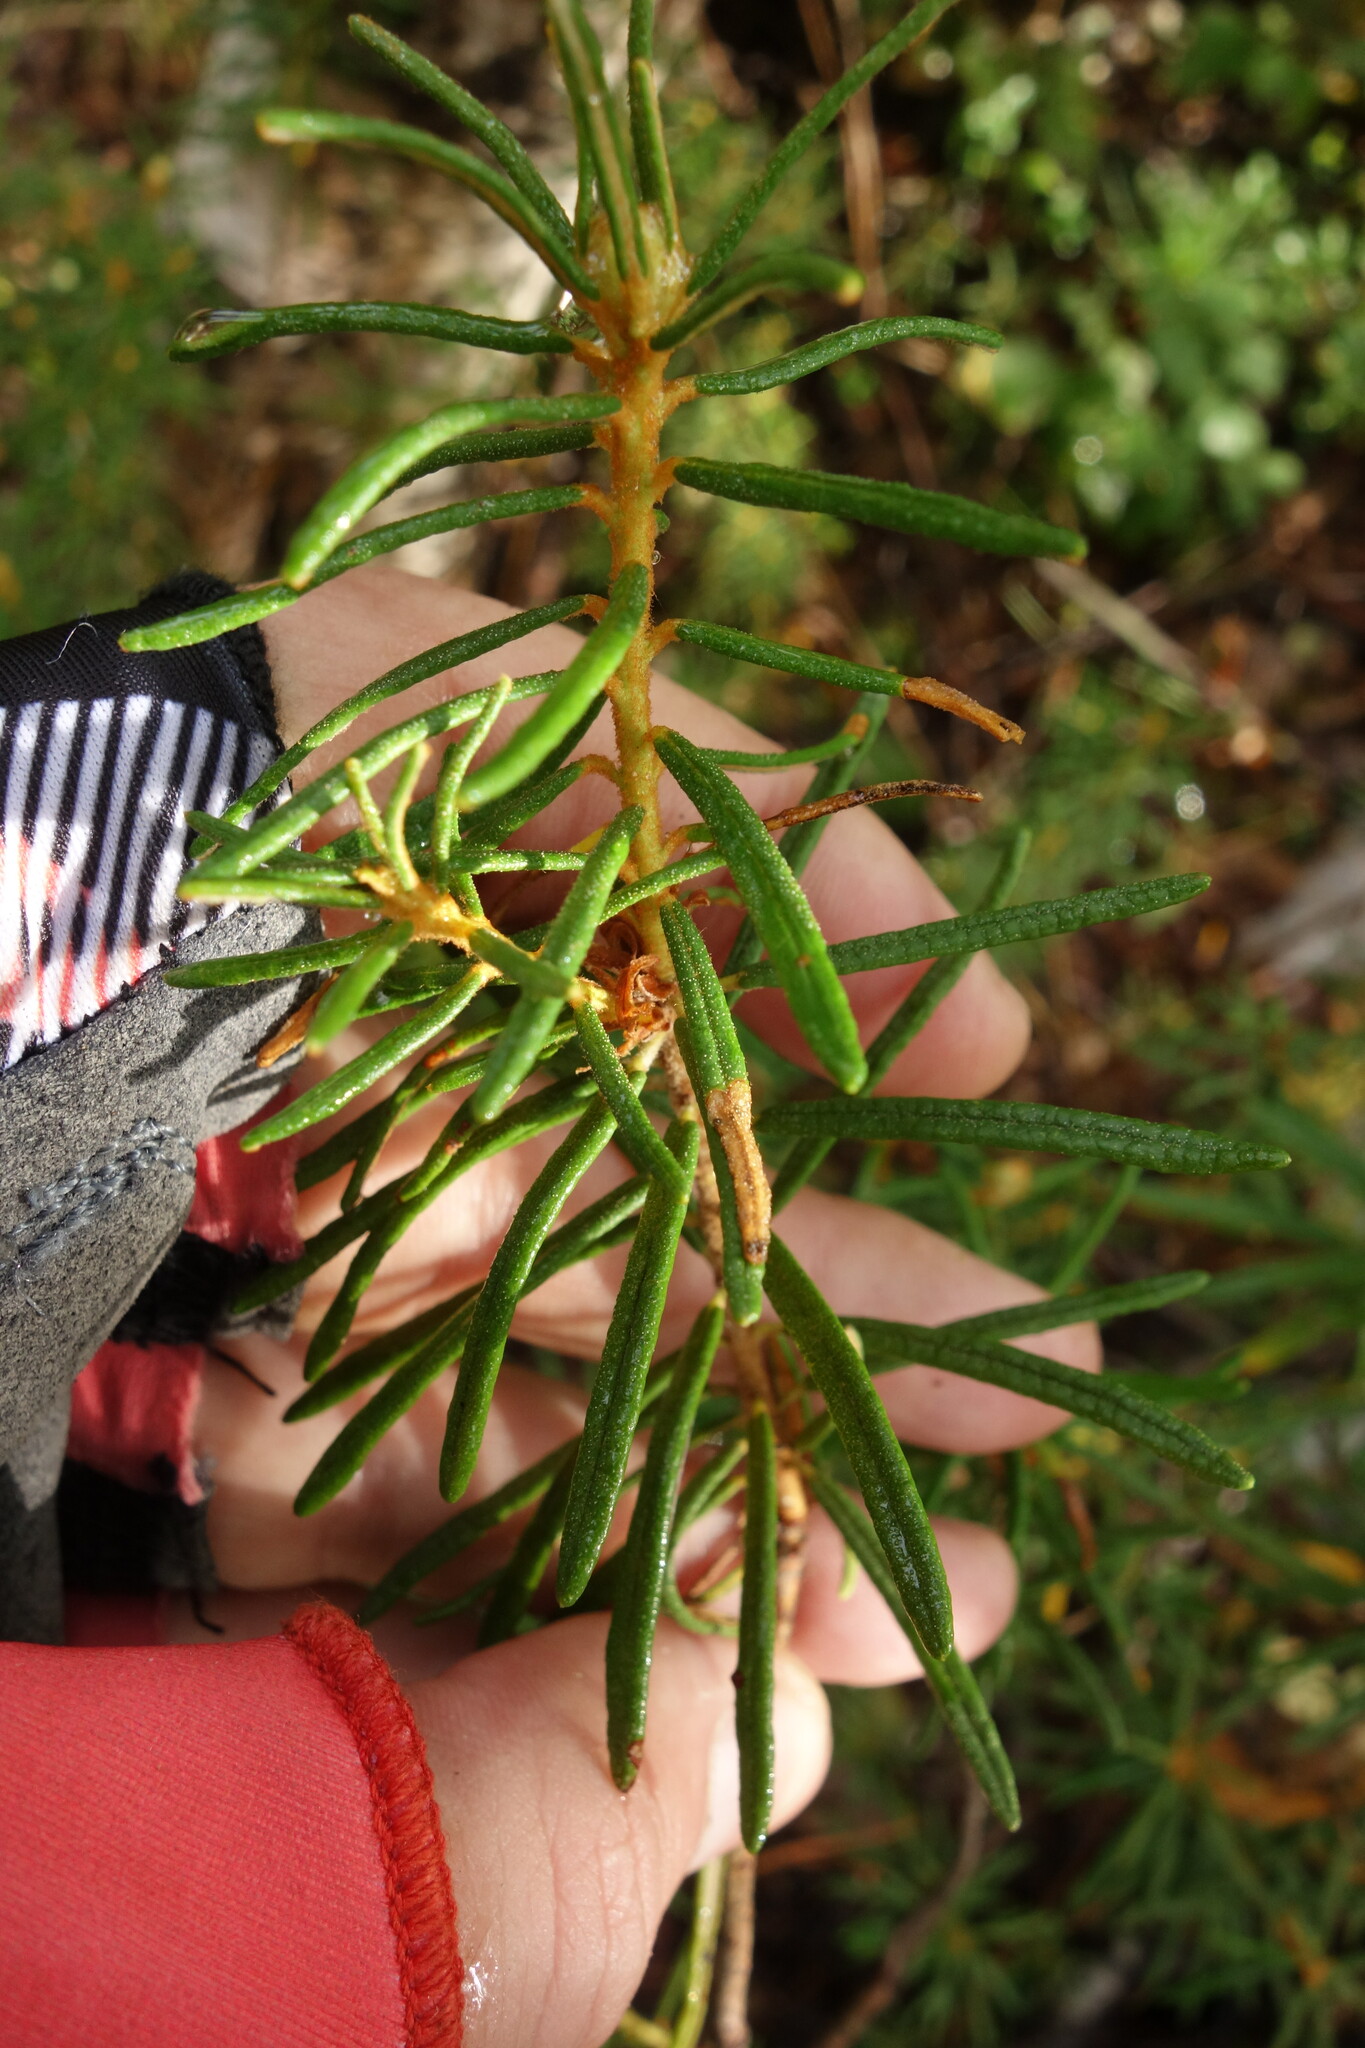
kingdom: Plantae
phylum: Tracheophyta
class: Magnoliopsida
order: Ericales
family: Ericaceae
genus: Rhododendron
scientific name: Rhododendron tomentosum
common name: Marsh labrador tea
